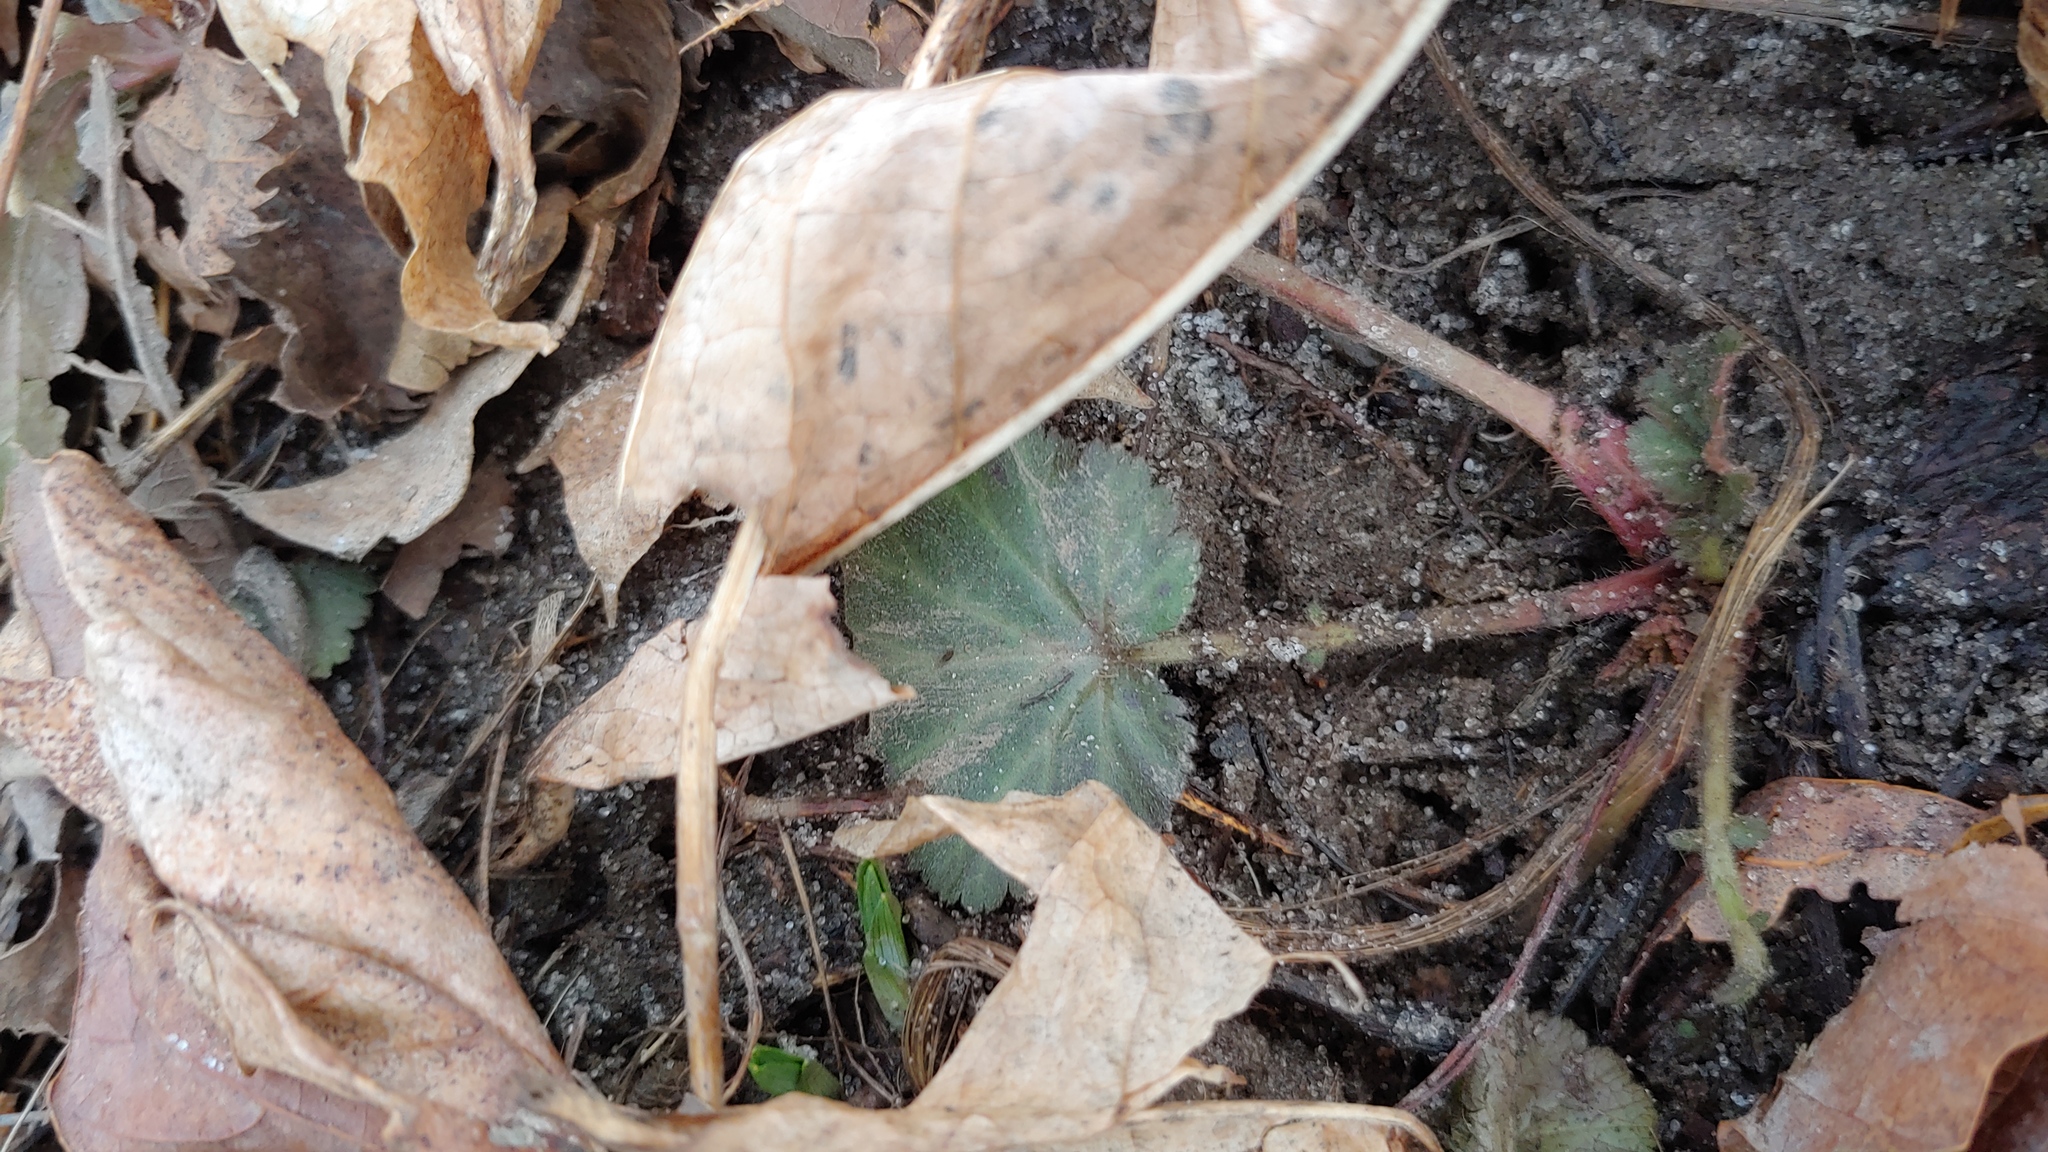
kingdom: Plantae
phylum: Tracheophyta
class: Magnoliopsida
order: Rosales
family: Rosaceae
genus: Geum
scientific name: Geum canadense
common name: White avens
